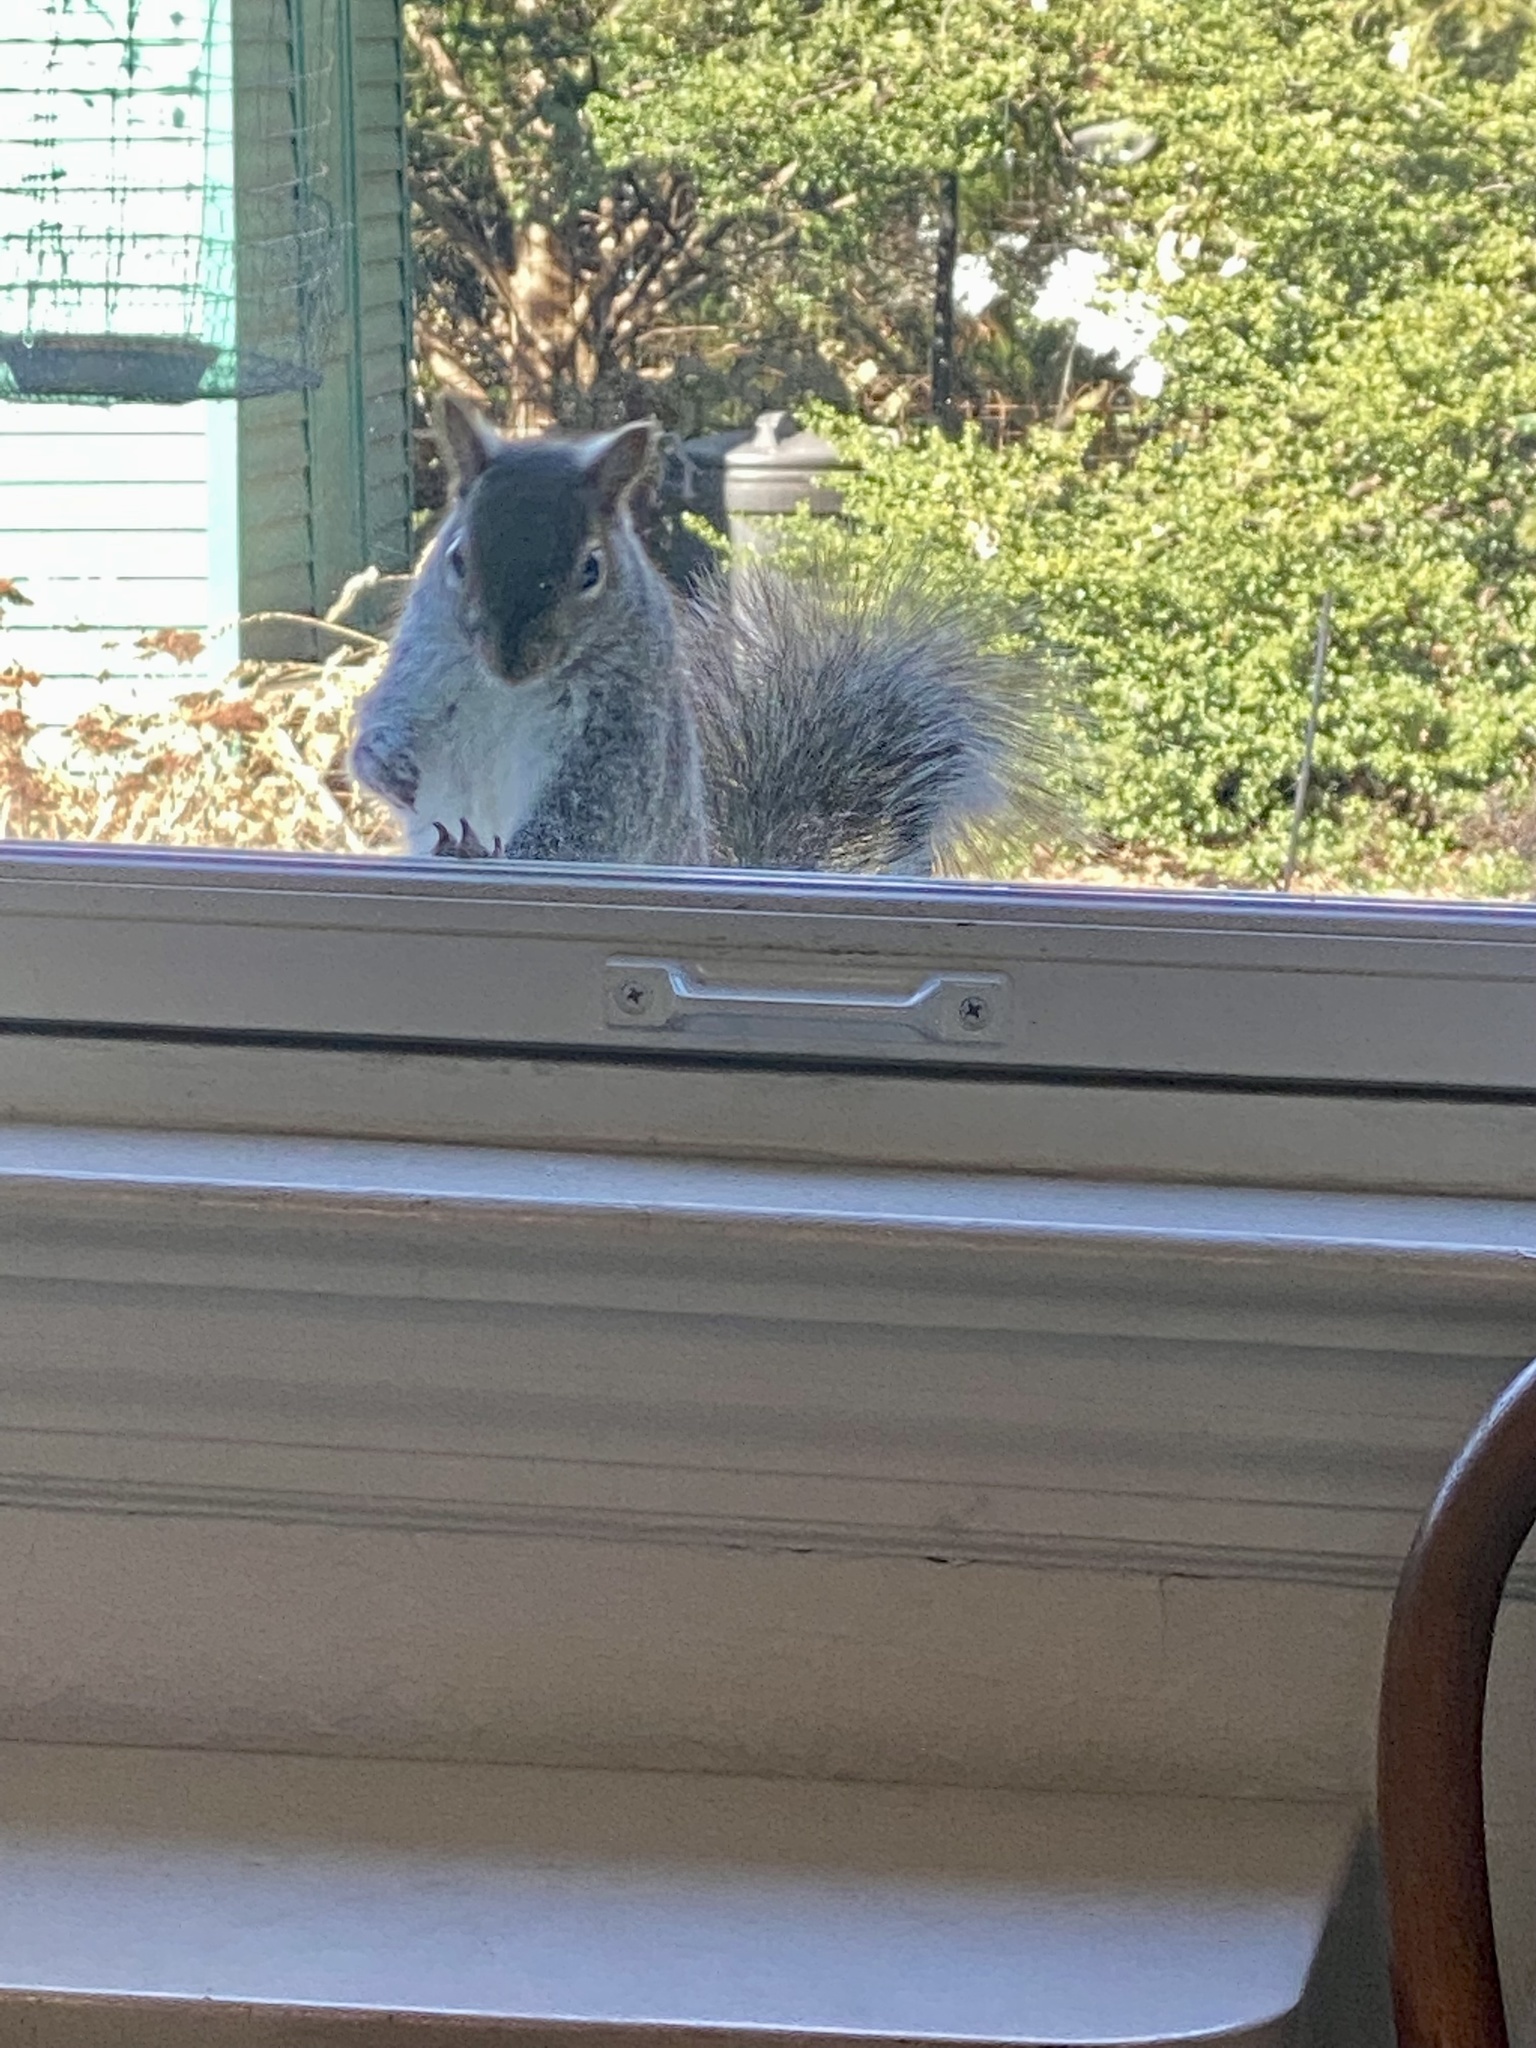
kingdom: Animalia
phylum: Chordata
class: Mammalia
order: Rodentia
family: Sciuridae
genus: Sciurus
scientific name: Sciurus carolinensis
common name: Eastern gray squirrel
